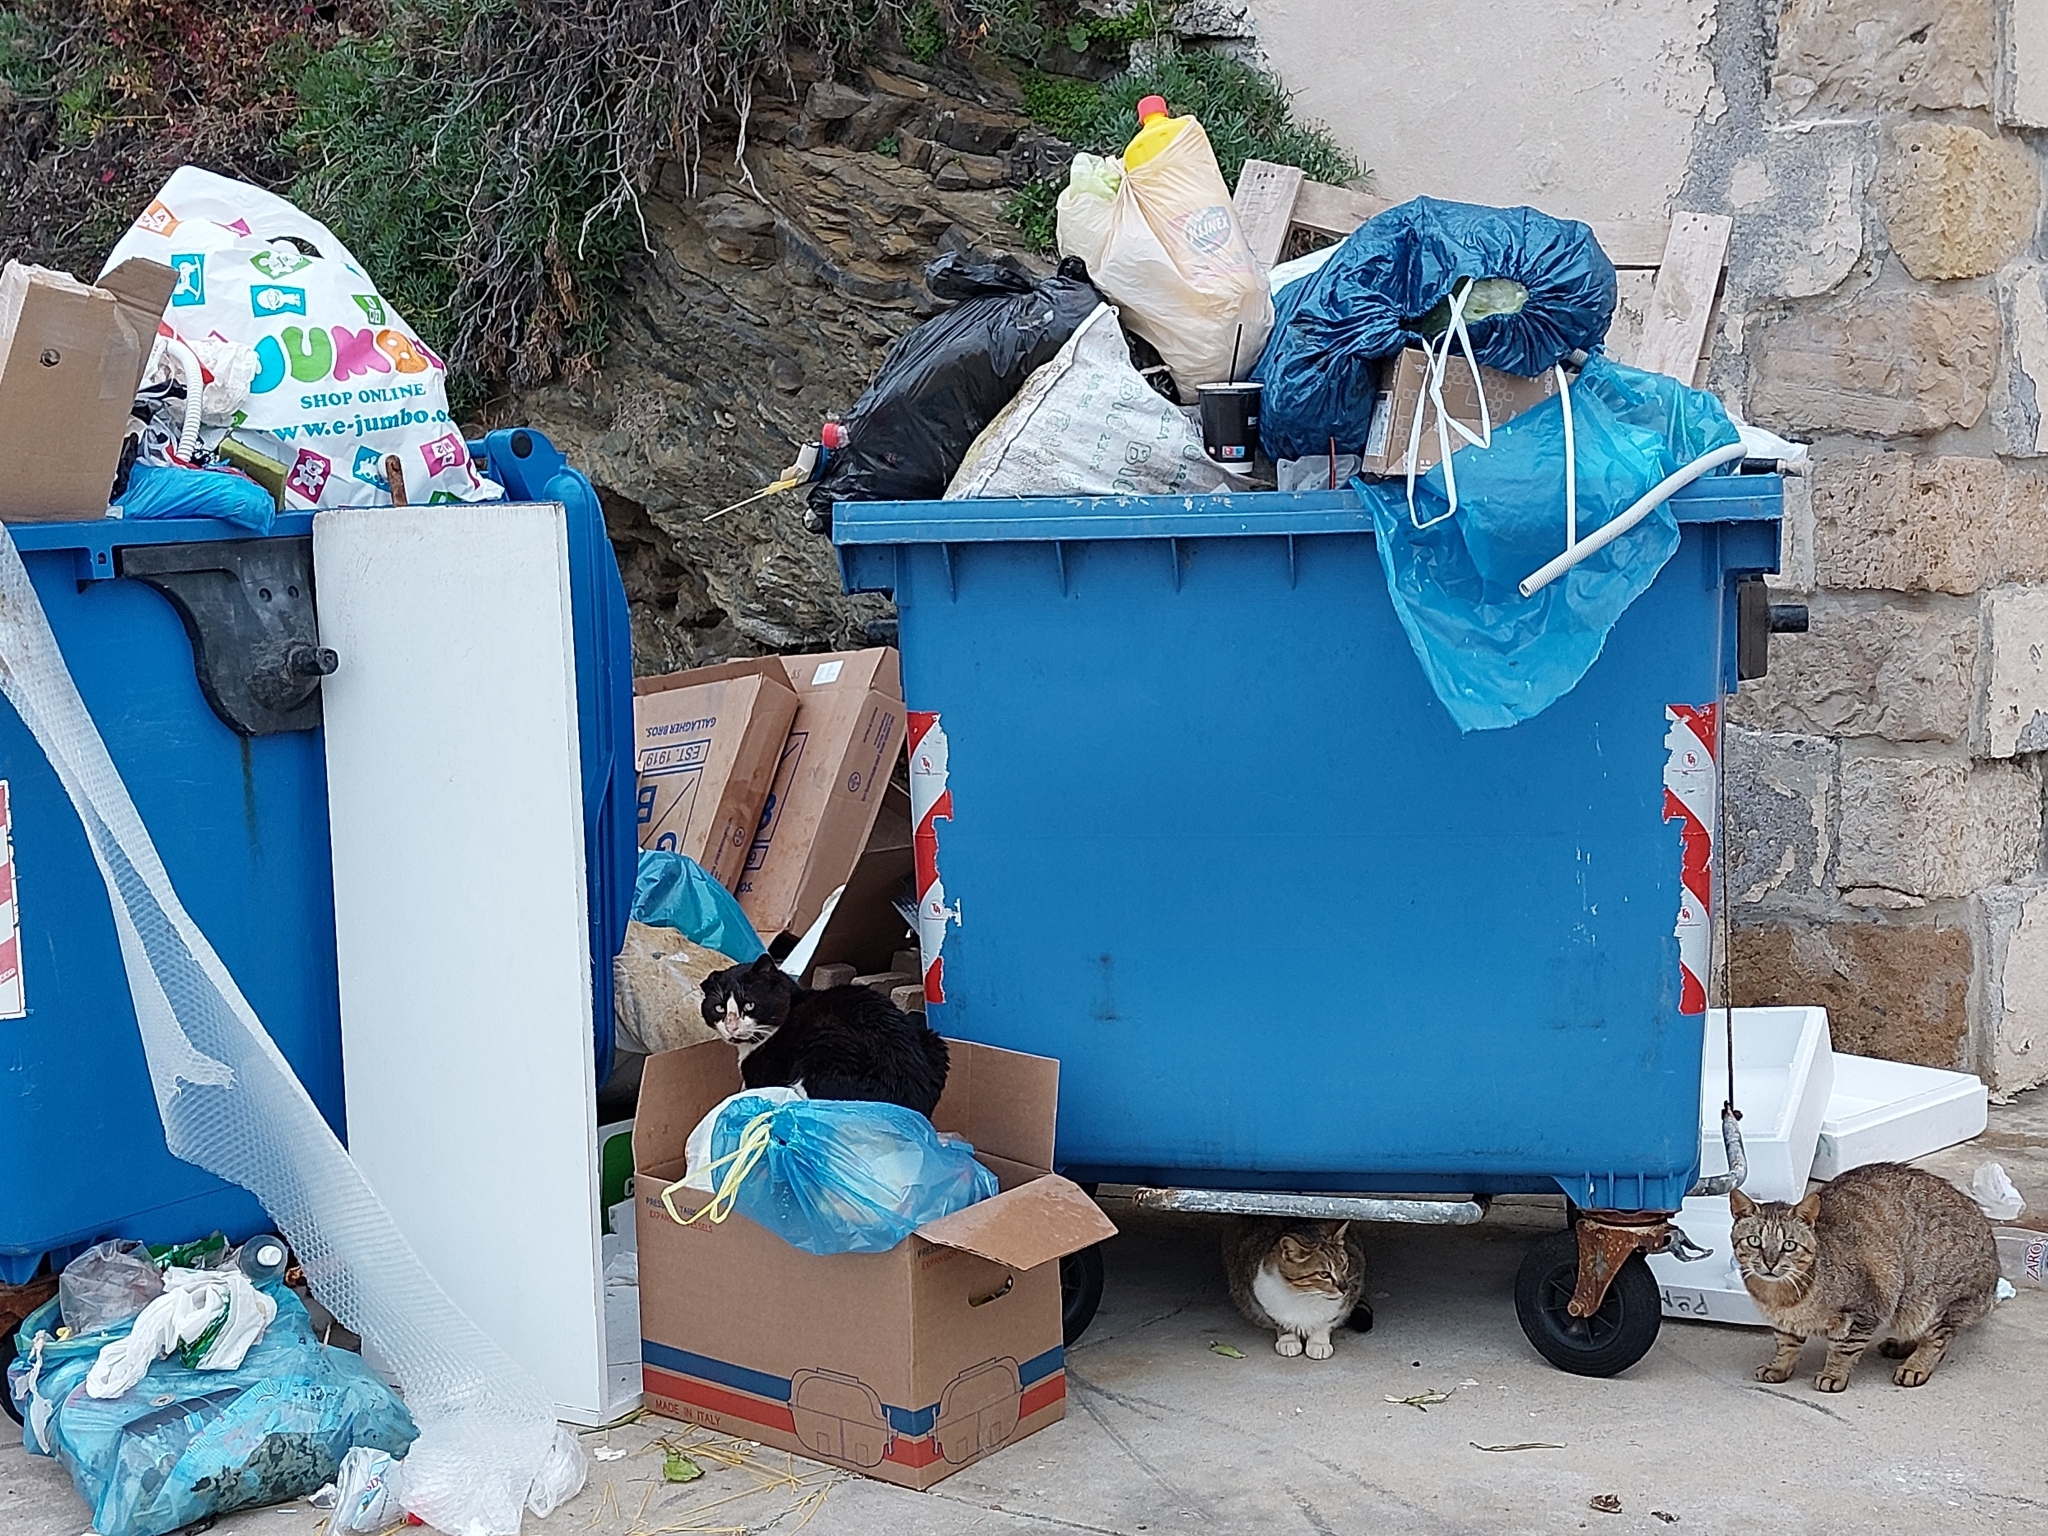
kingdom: Animalia
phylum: Chordata
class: Mammalia
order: Carnivora
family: Felidae
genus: Felis
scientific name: Felis catus
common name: Domestic cat
